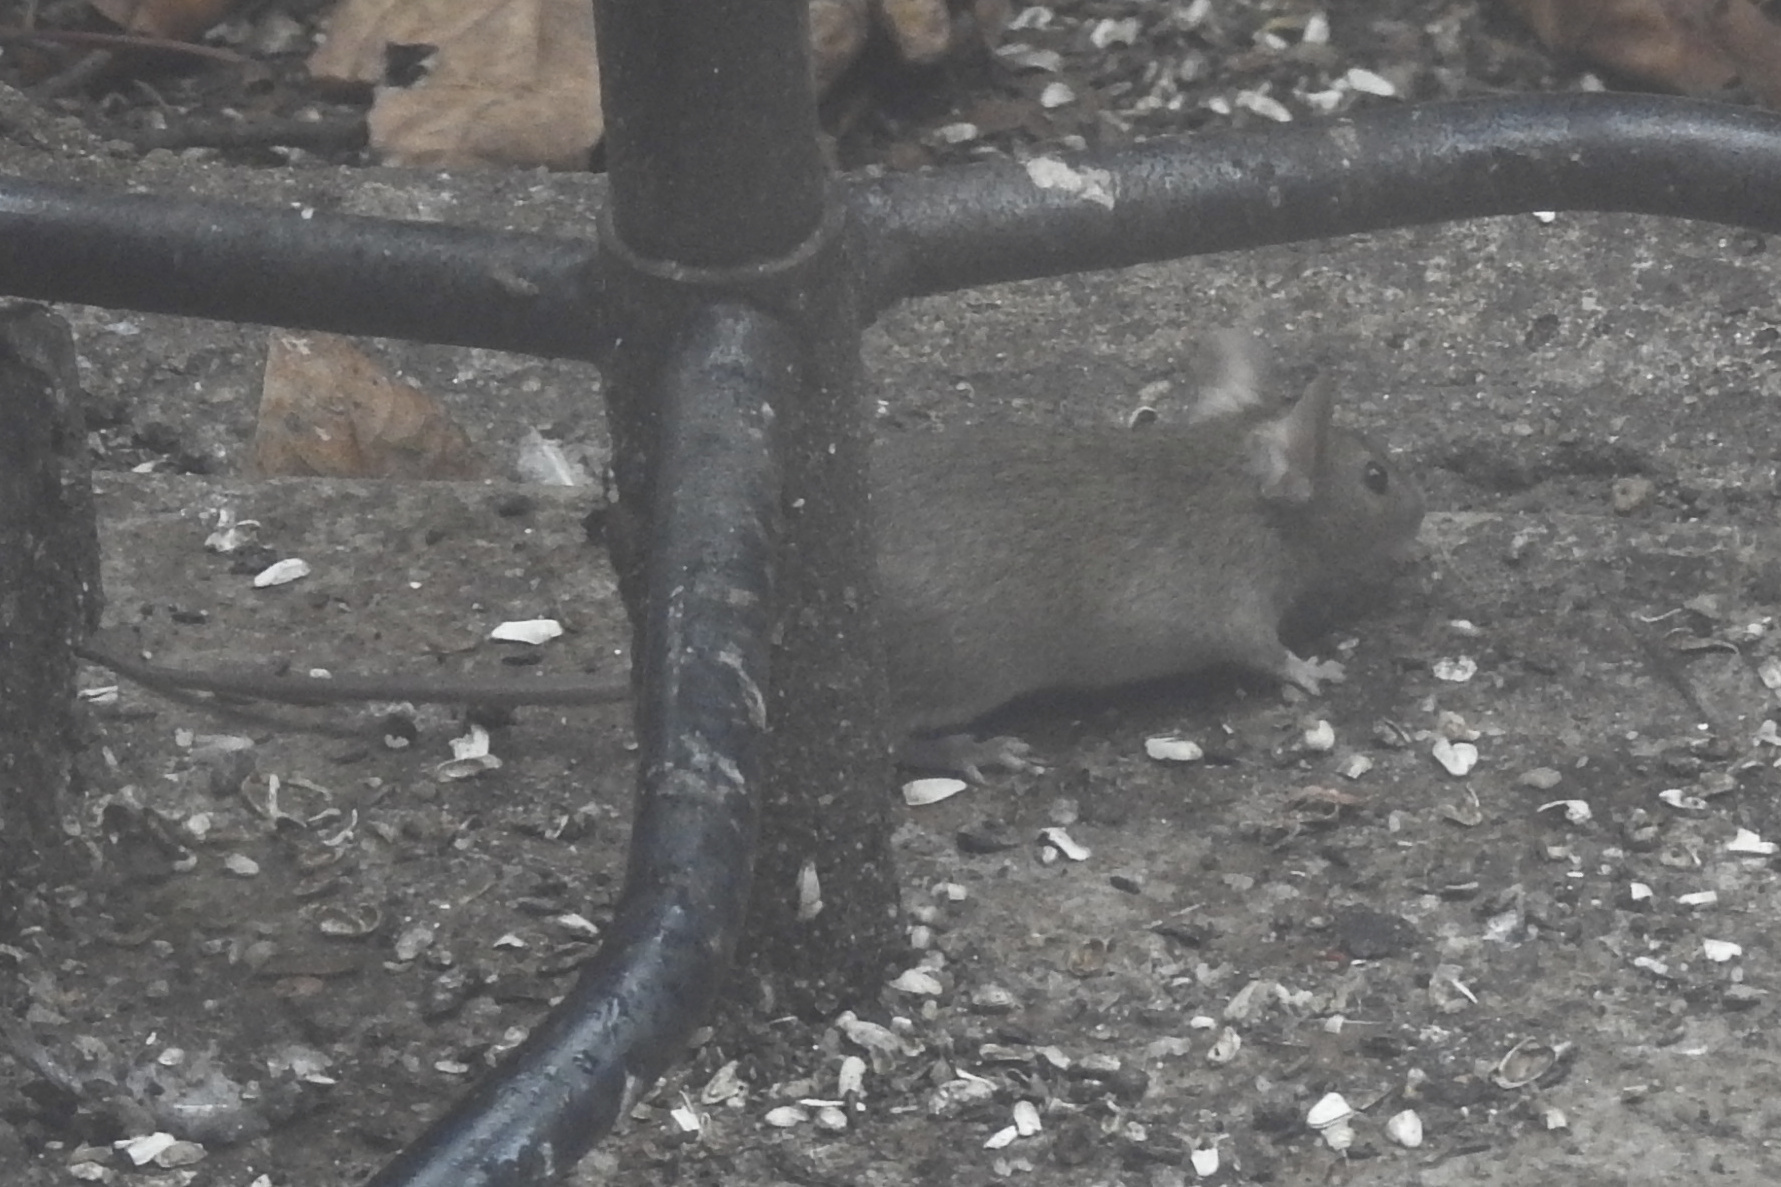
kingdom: Animalia
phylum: Chordata
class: Mammalia
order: Rodentia
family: Muridae
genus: Mus
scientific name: Mus musculus
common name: House mouse
